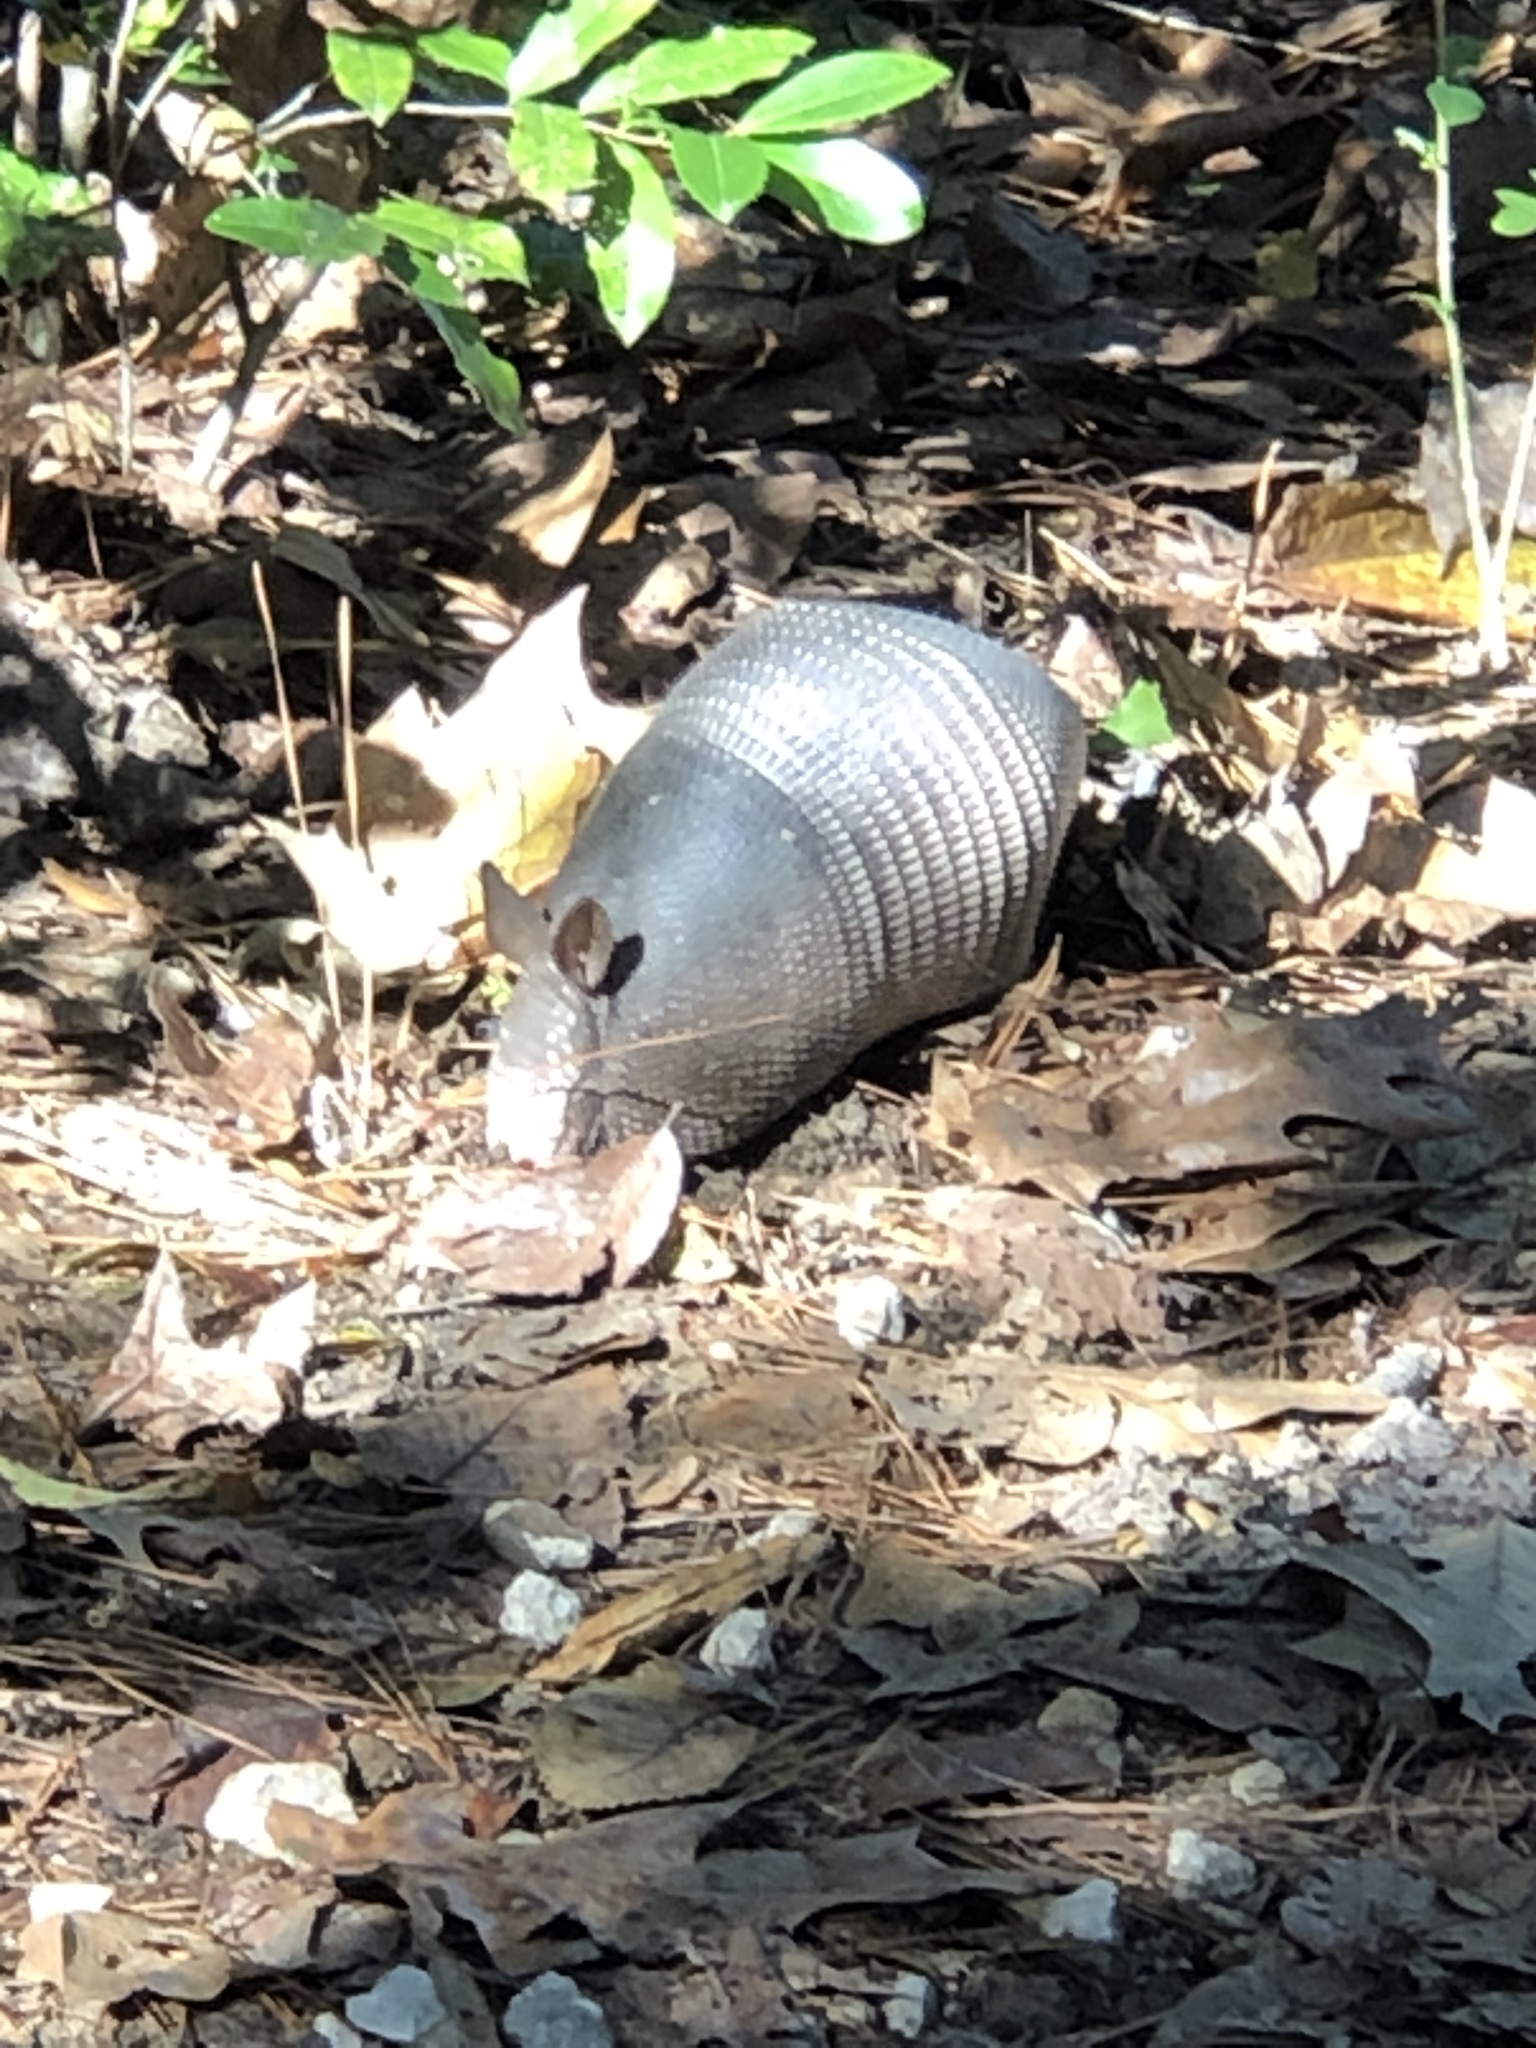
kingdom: Animalia
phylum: Chordata
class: Mammalia
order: Cingulata
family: Dasypodidae
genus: Dasypus
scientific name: Dasypus novemcinctus
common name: Nine-banded armadillo
